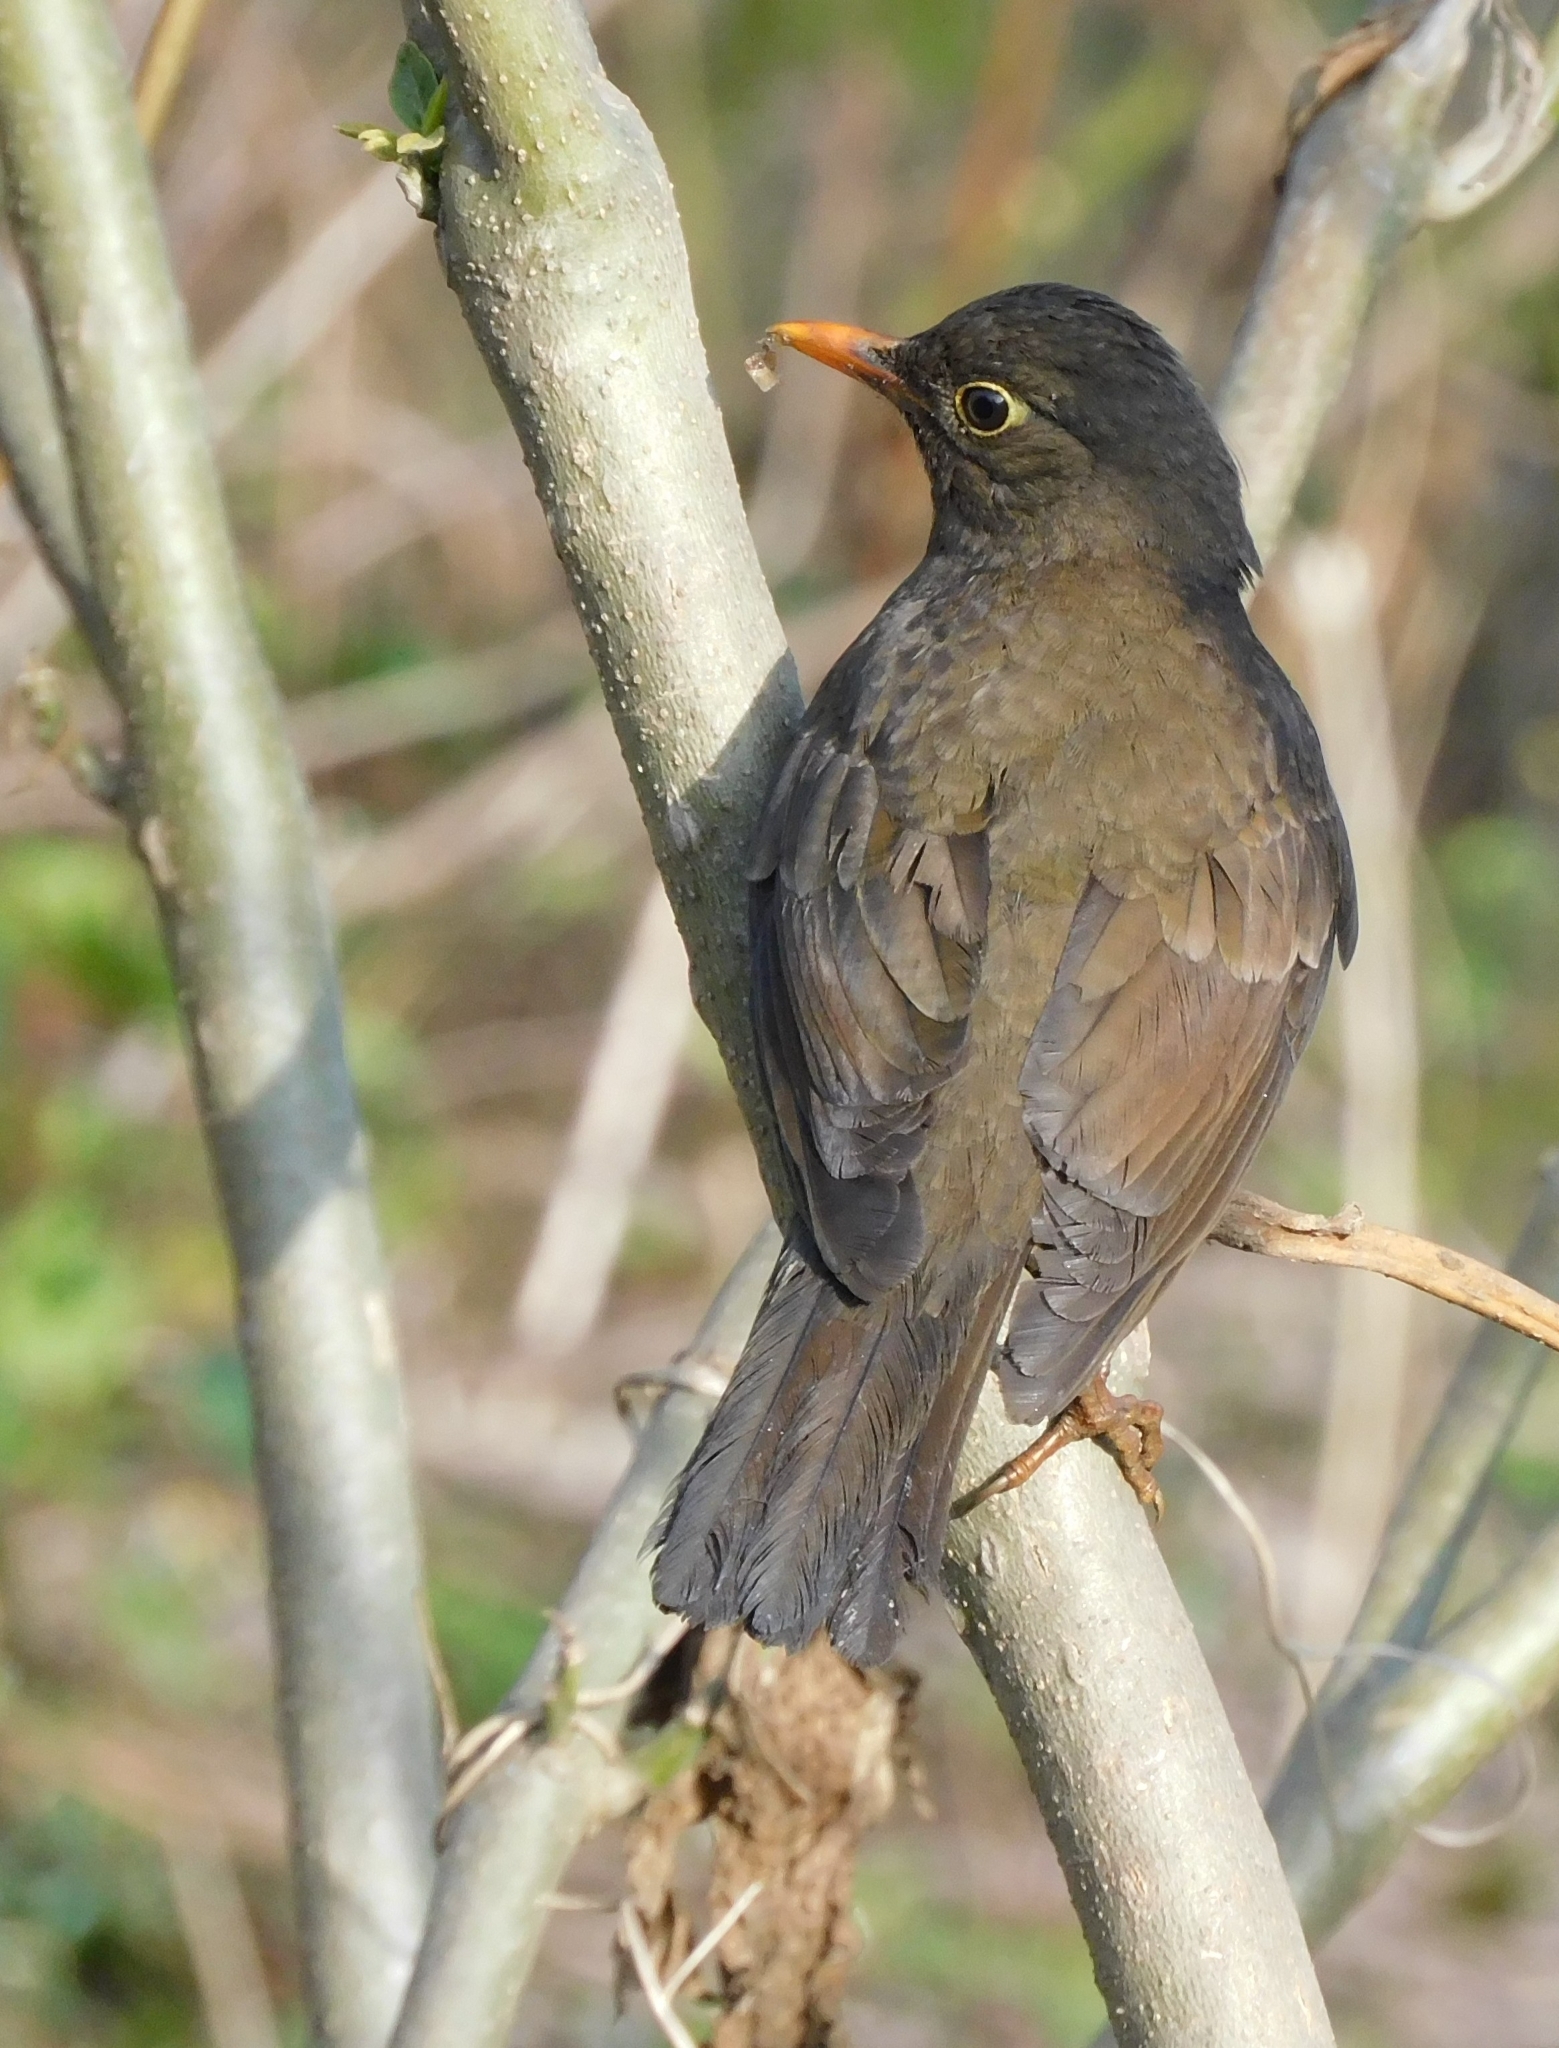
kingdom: Animalia
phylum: Chordata
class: Aves
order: Passeriformes
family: Turdidae
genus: Turdus
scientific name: Turdus boulboul
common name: Grey-winged blackbird
